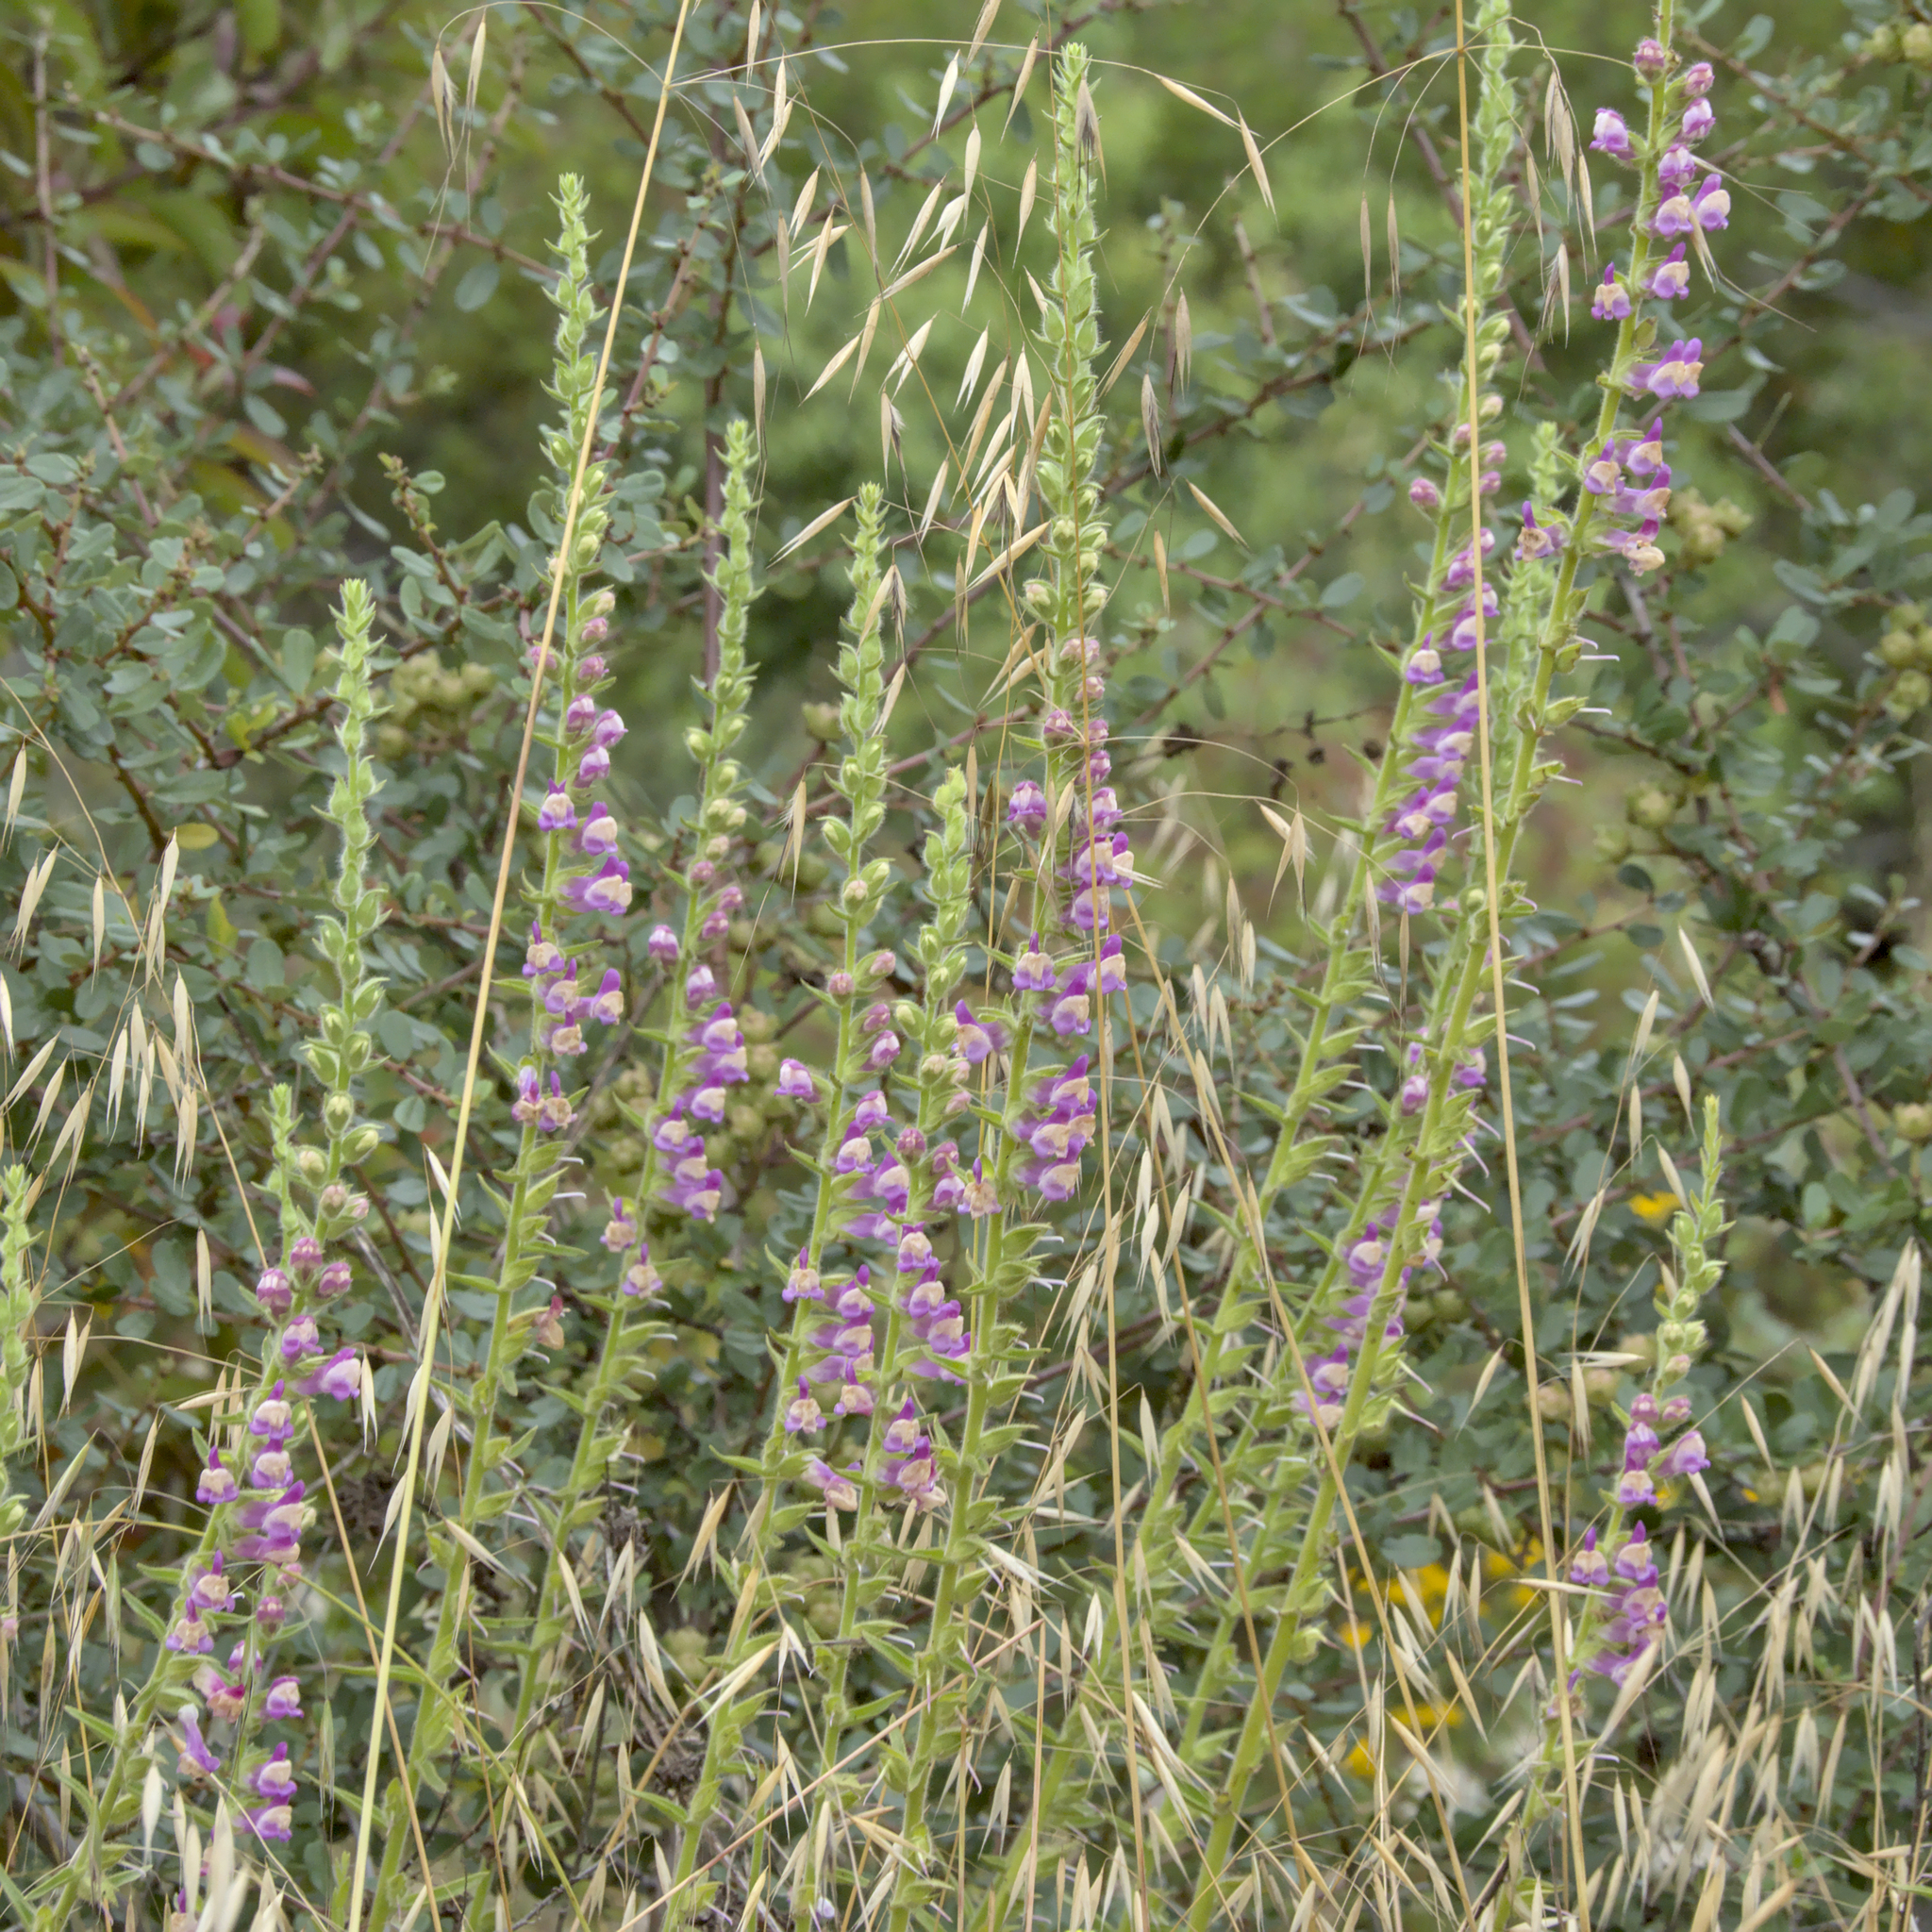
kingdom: Plantae
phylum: Tracheophyta
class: Magnoliopsida
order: Lamiales
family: Plantaginaceae
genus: Sairocarpus
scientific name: Sairocarpus multiflorus
